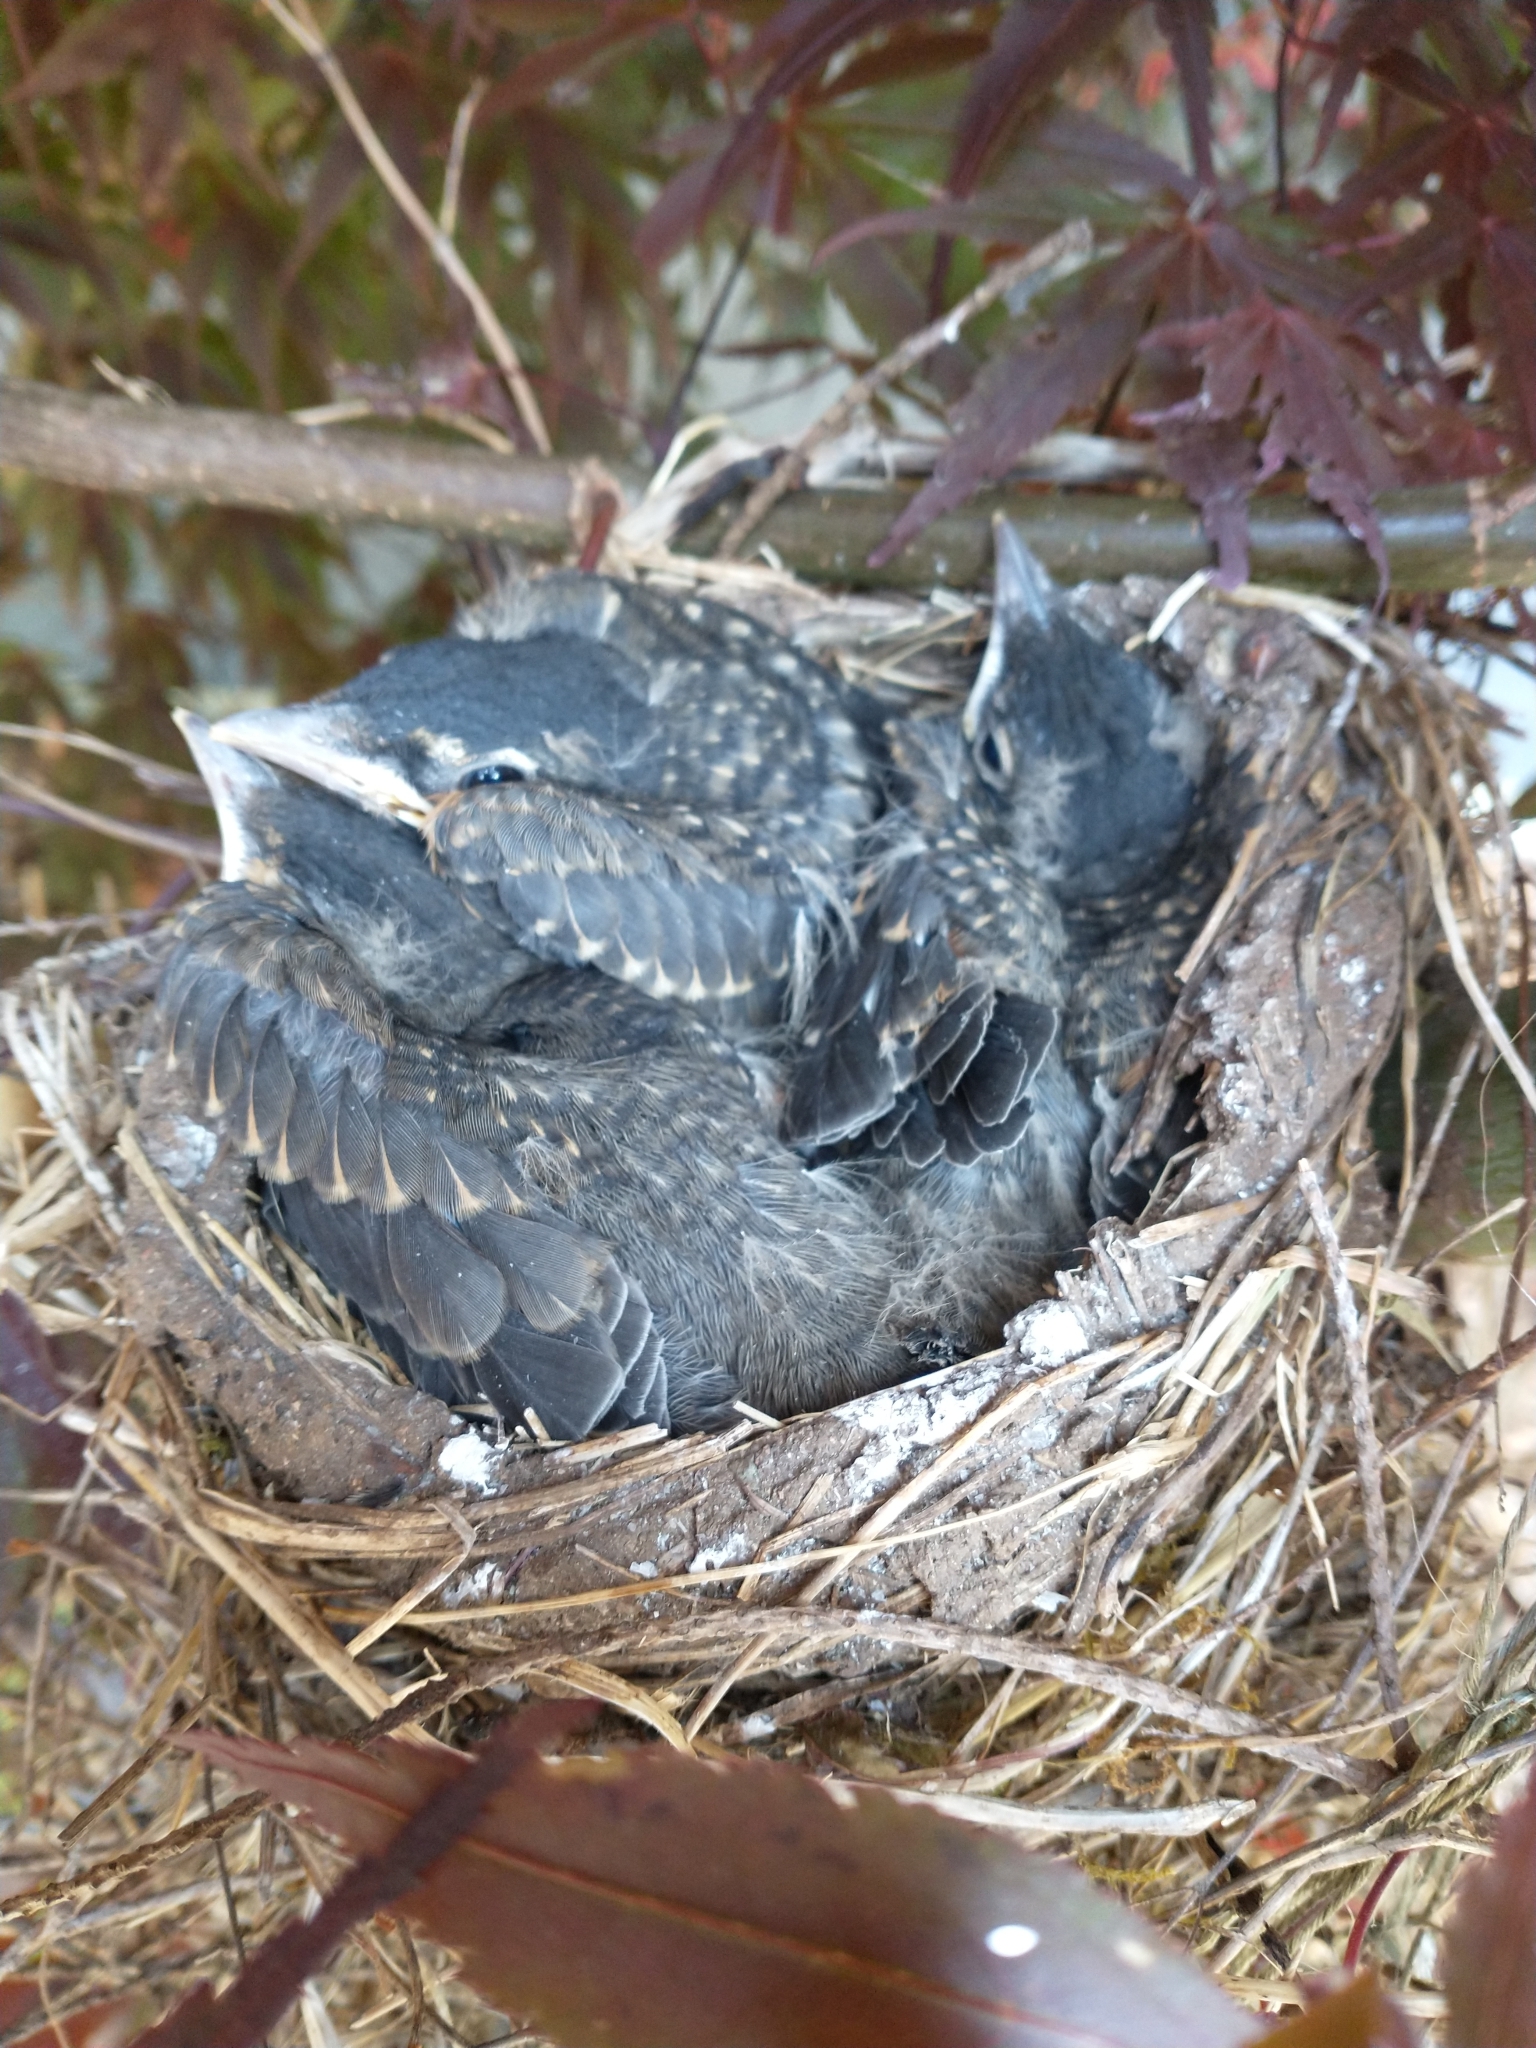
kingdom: Animalia
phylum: Chordata
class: Aves
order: Passeriformes
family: Turdidae
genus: Turdus
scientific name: Turdus migratorius
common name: American robin
